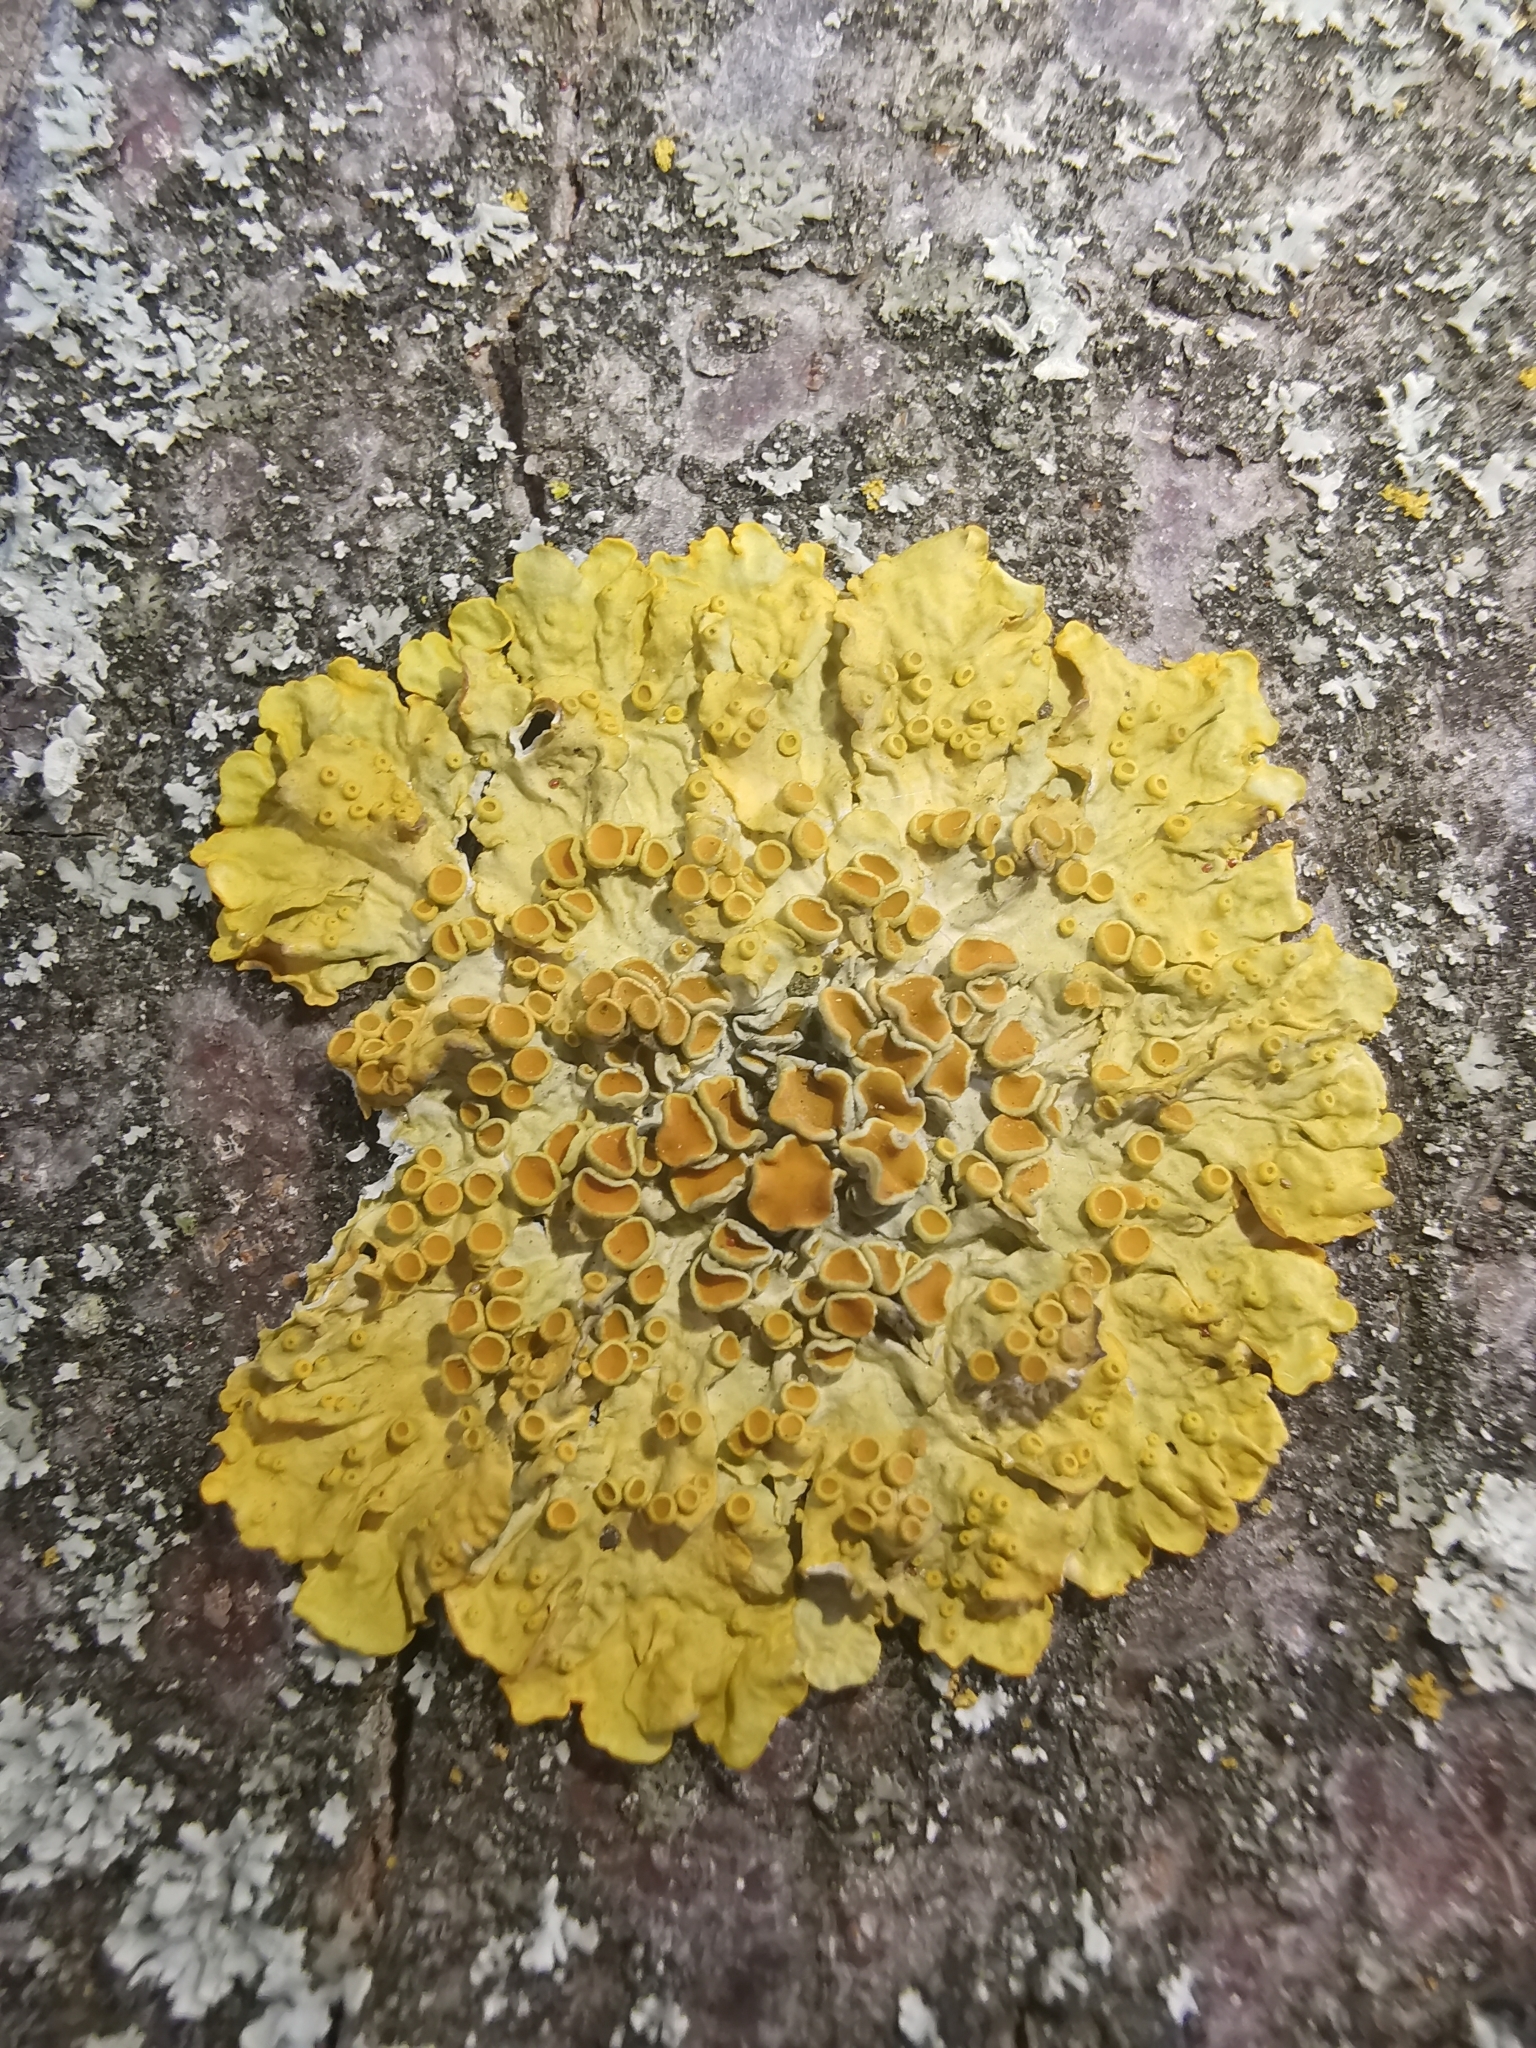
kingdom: Fungi
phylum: Ascomycota
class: Lecanoromycetes
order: Teloschistales
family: Teloschistaceae
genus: Xanthoria
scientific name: Xanthoria parietina
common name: Common orange lichen
